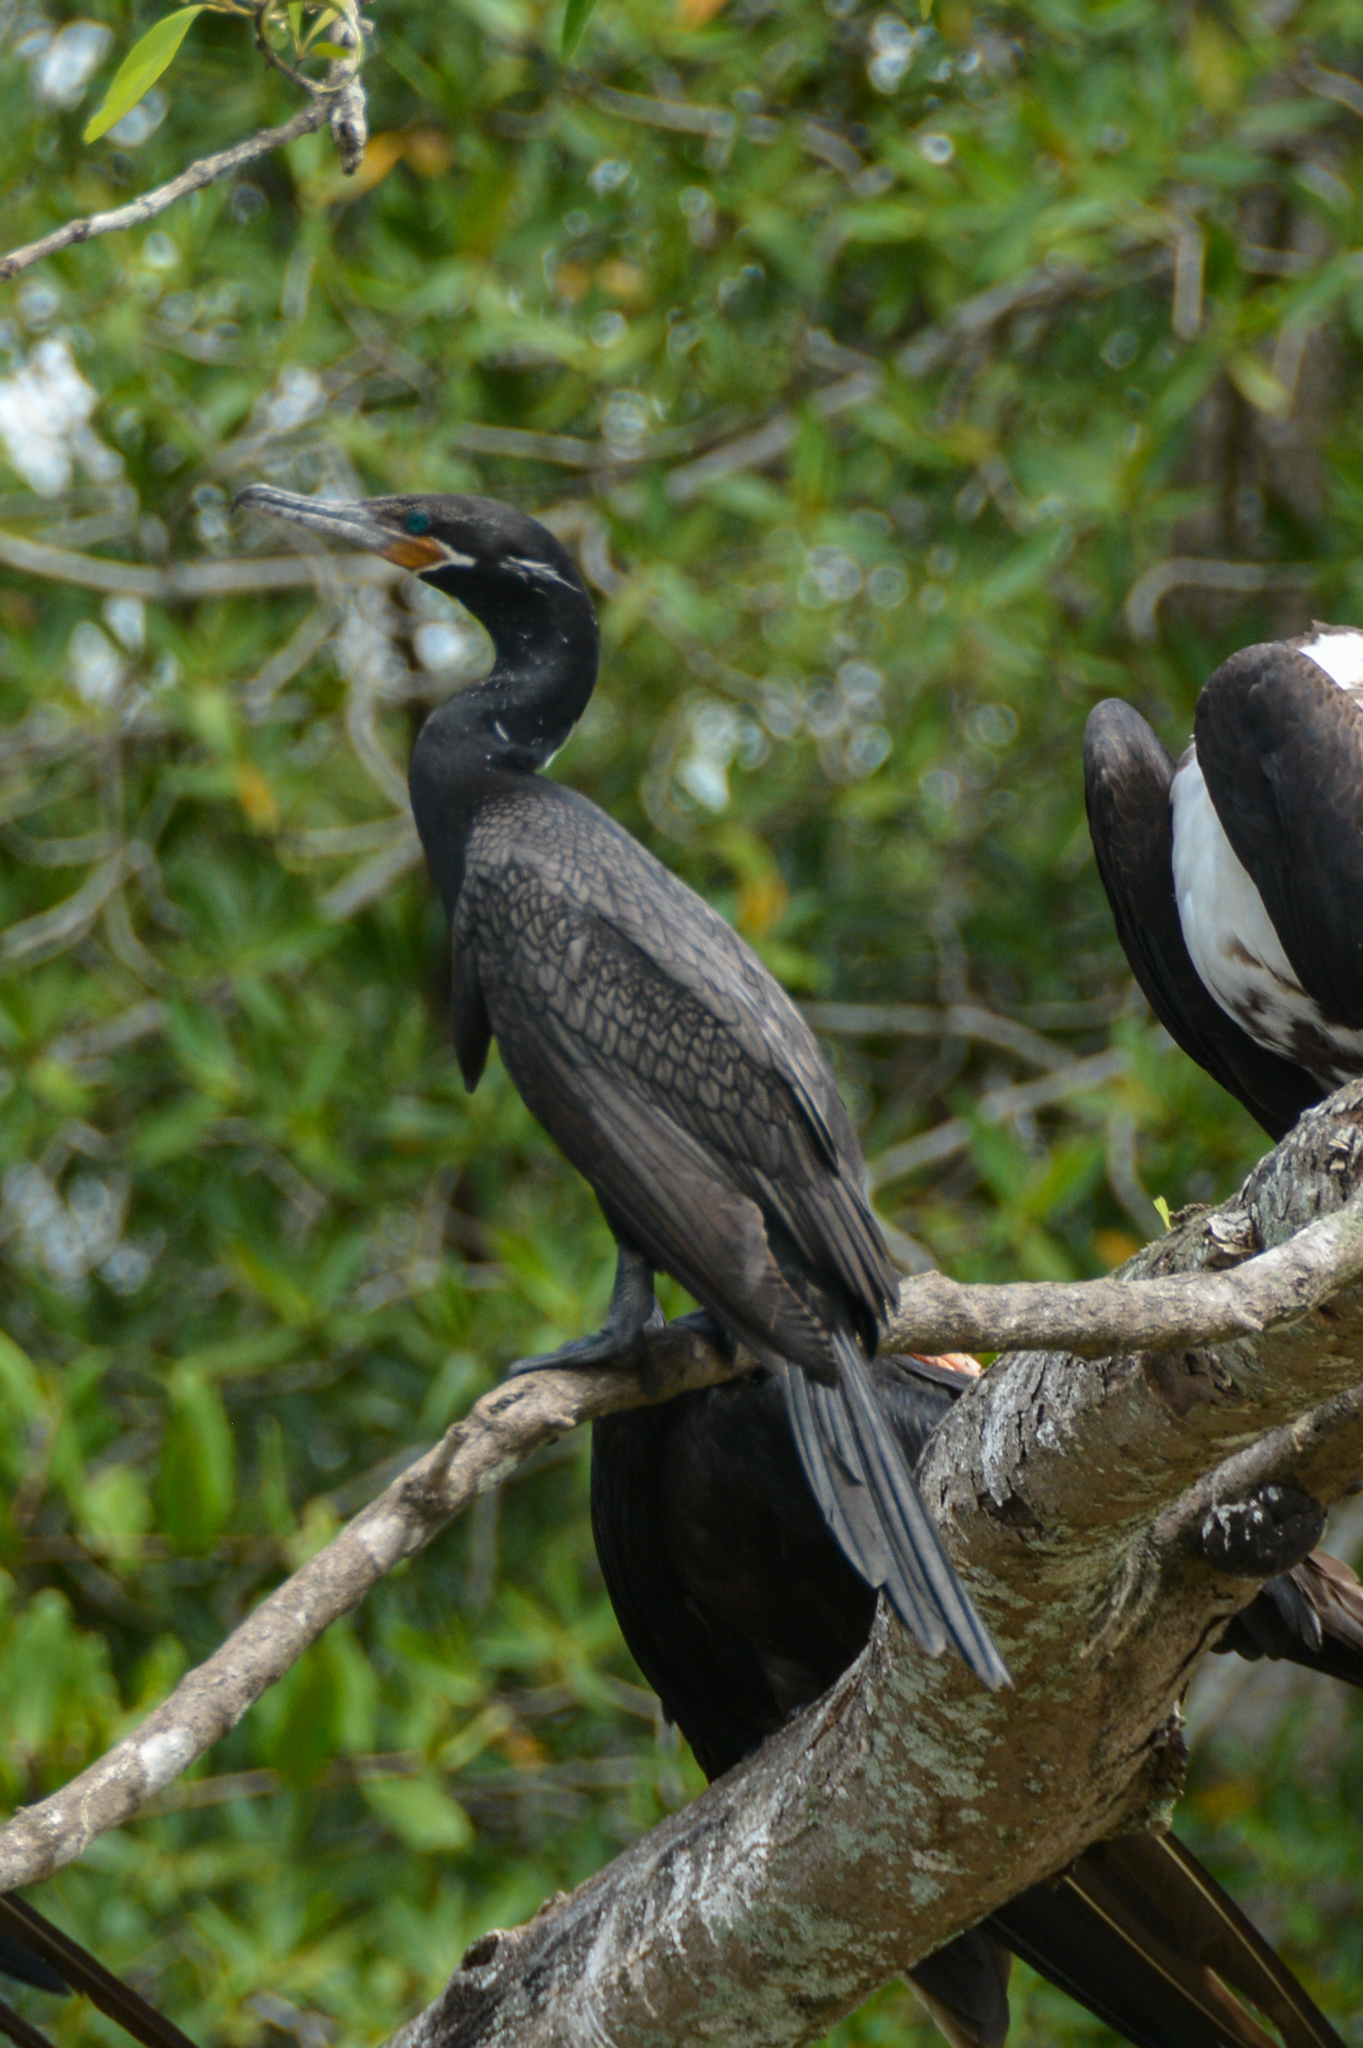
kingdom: Animalia
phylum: Chordata
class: Aves
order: Suliformes
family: Phalacrocoracidae
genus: Phalacrocorax
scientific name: Phalacrocorax brasilianus
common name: Neotropic cormorant
